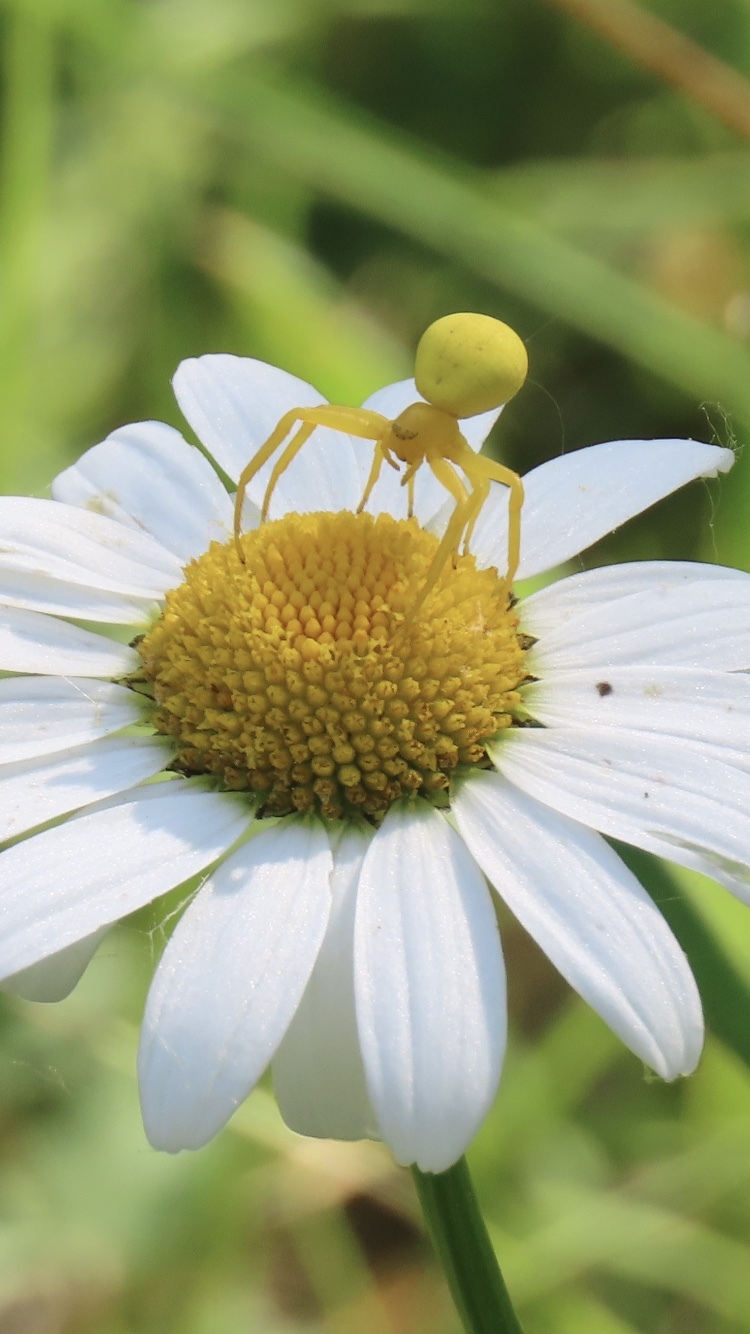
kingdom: Animalia
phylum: Arthropoda
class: Arachnida
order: Araneae
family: Thomisidae
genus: Misumena
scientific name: Misumena vatia
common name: Goldenrod crab spider
